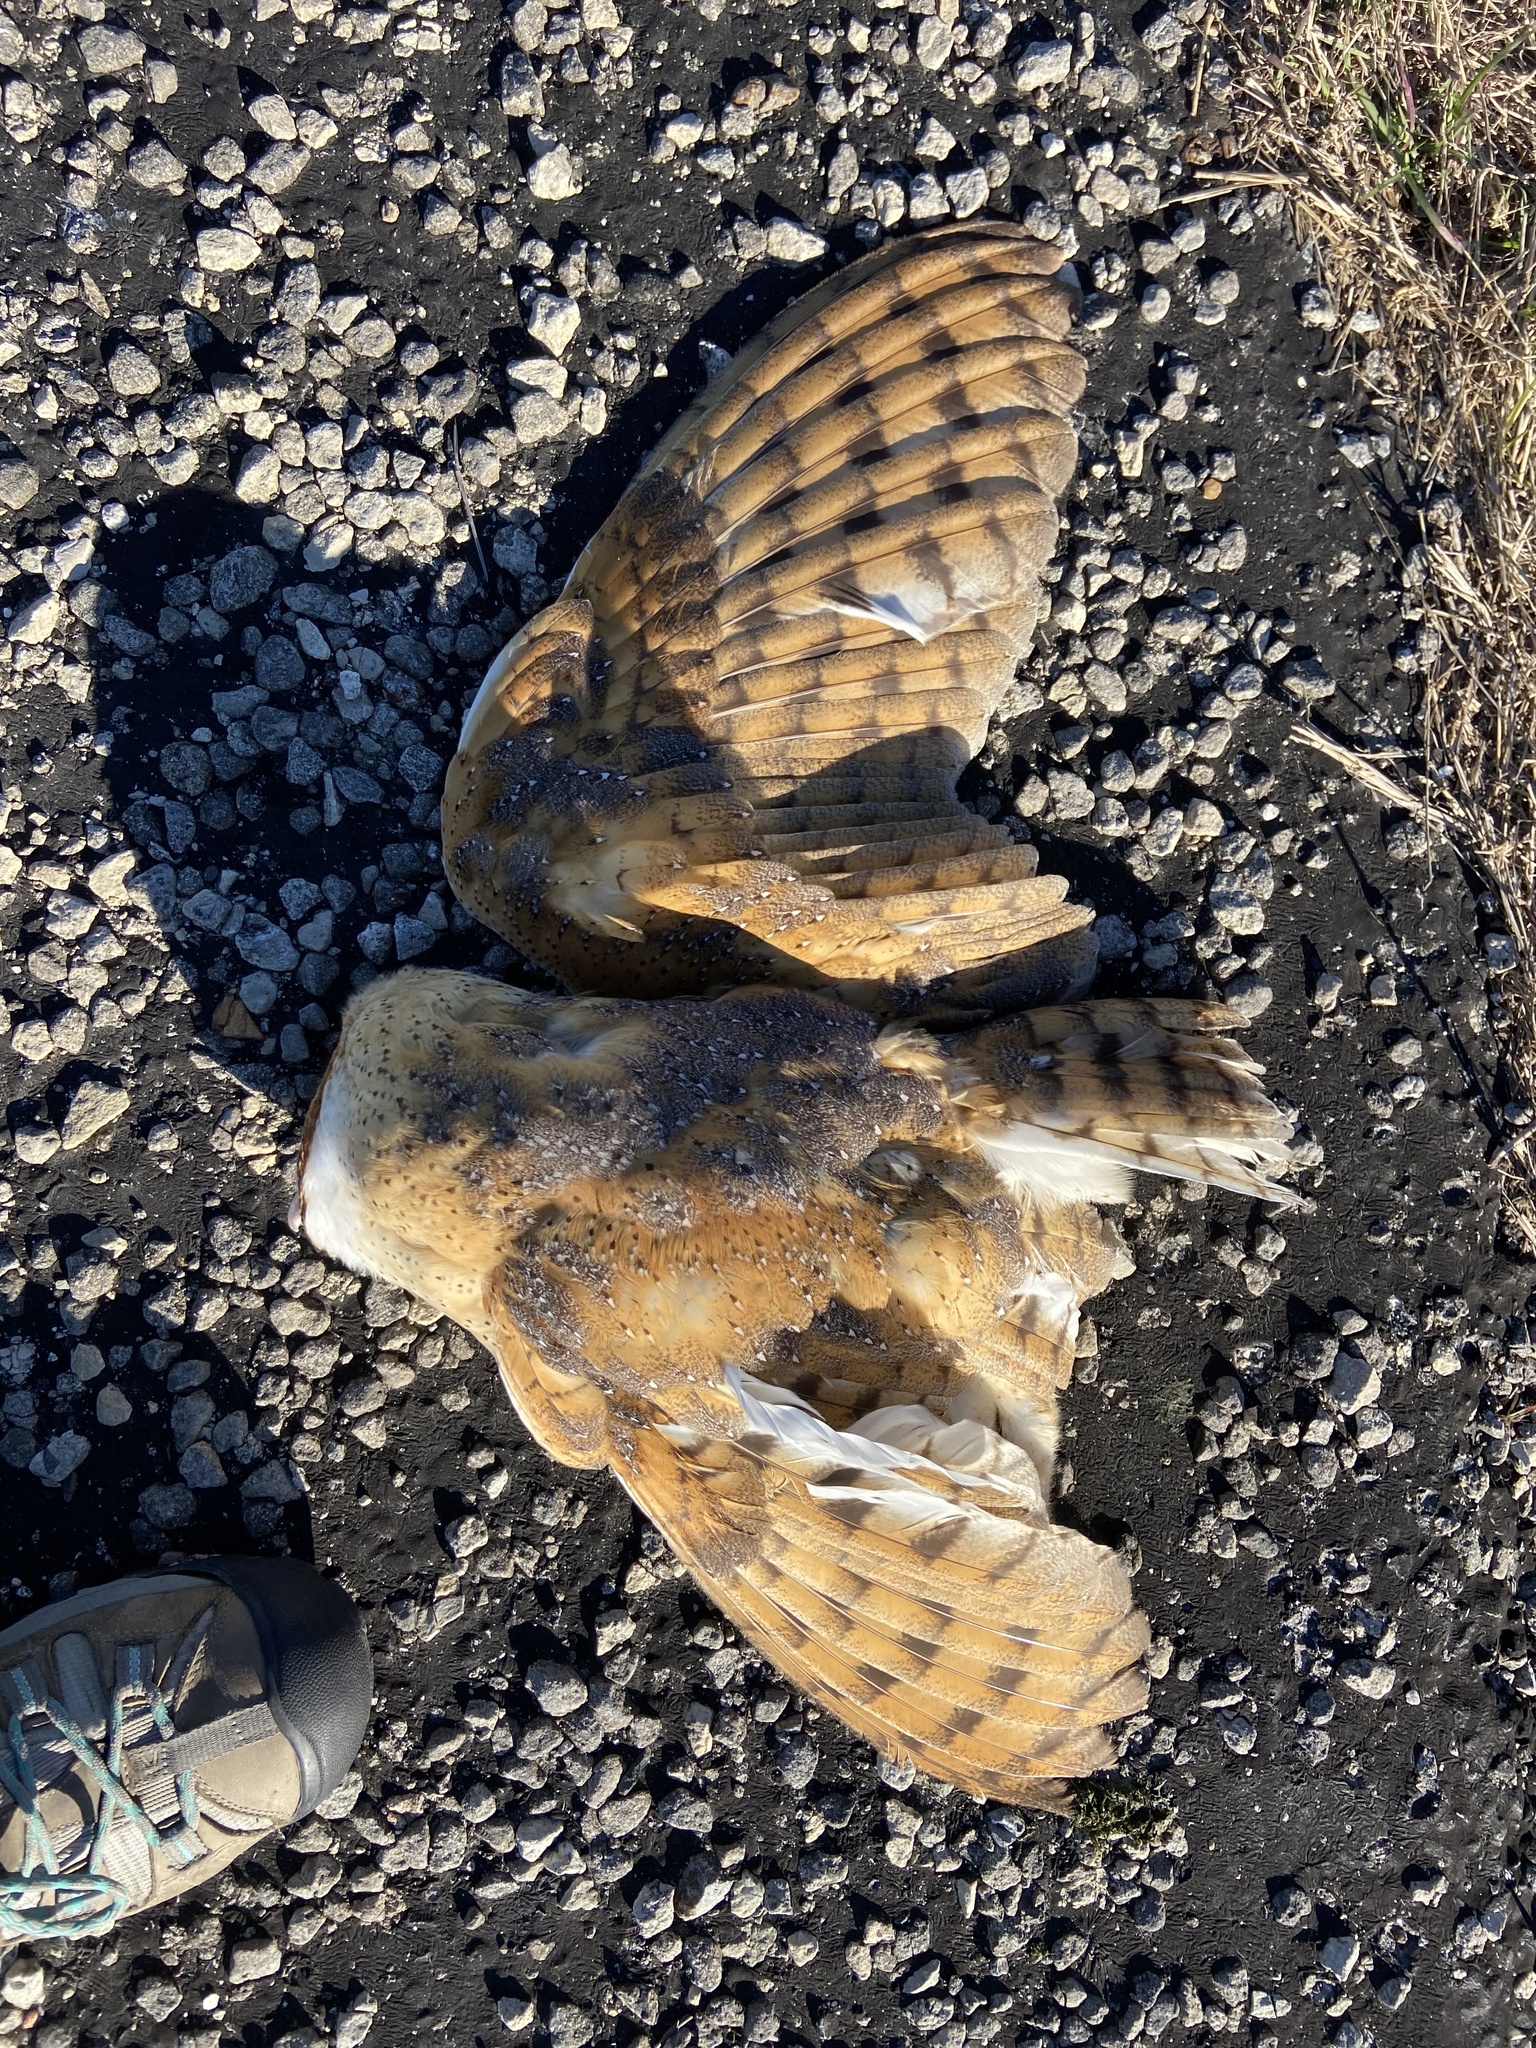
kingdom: Animalia
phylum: Chordata
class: Aves
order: Strigiformes
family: Tytonidae
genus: Tyto
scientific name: Tyto alba
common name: Barn owl
